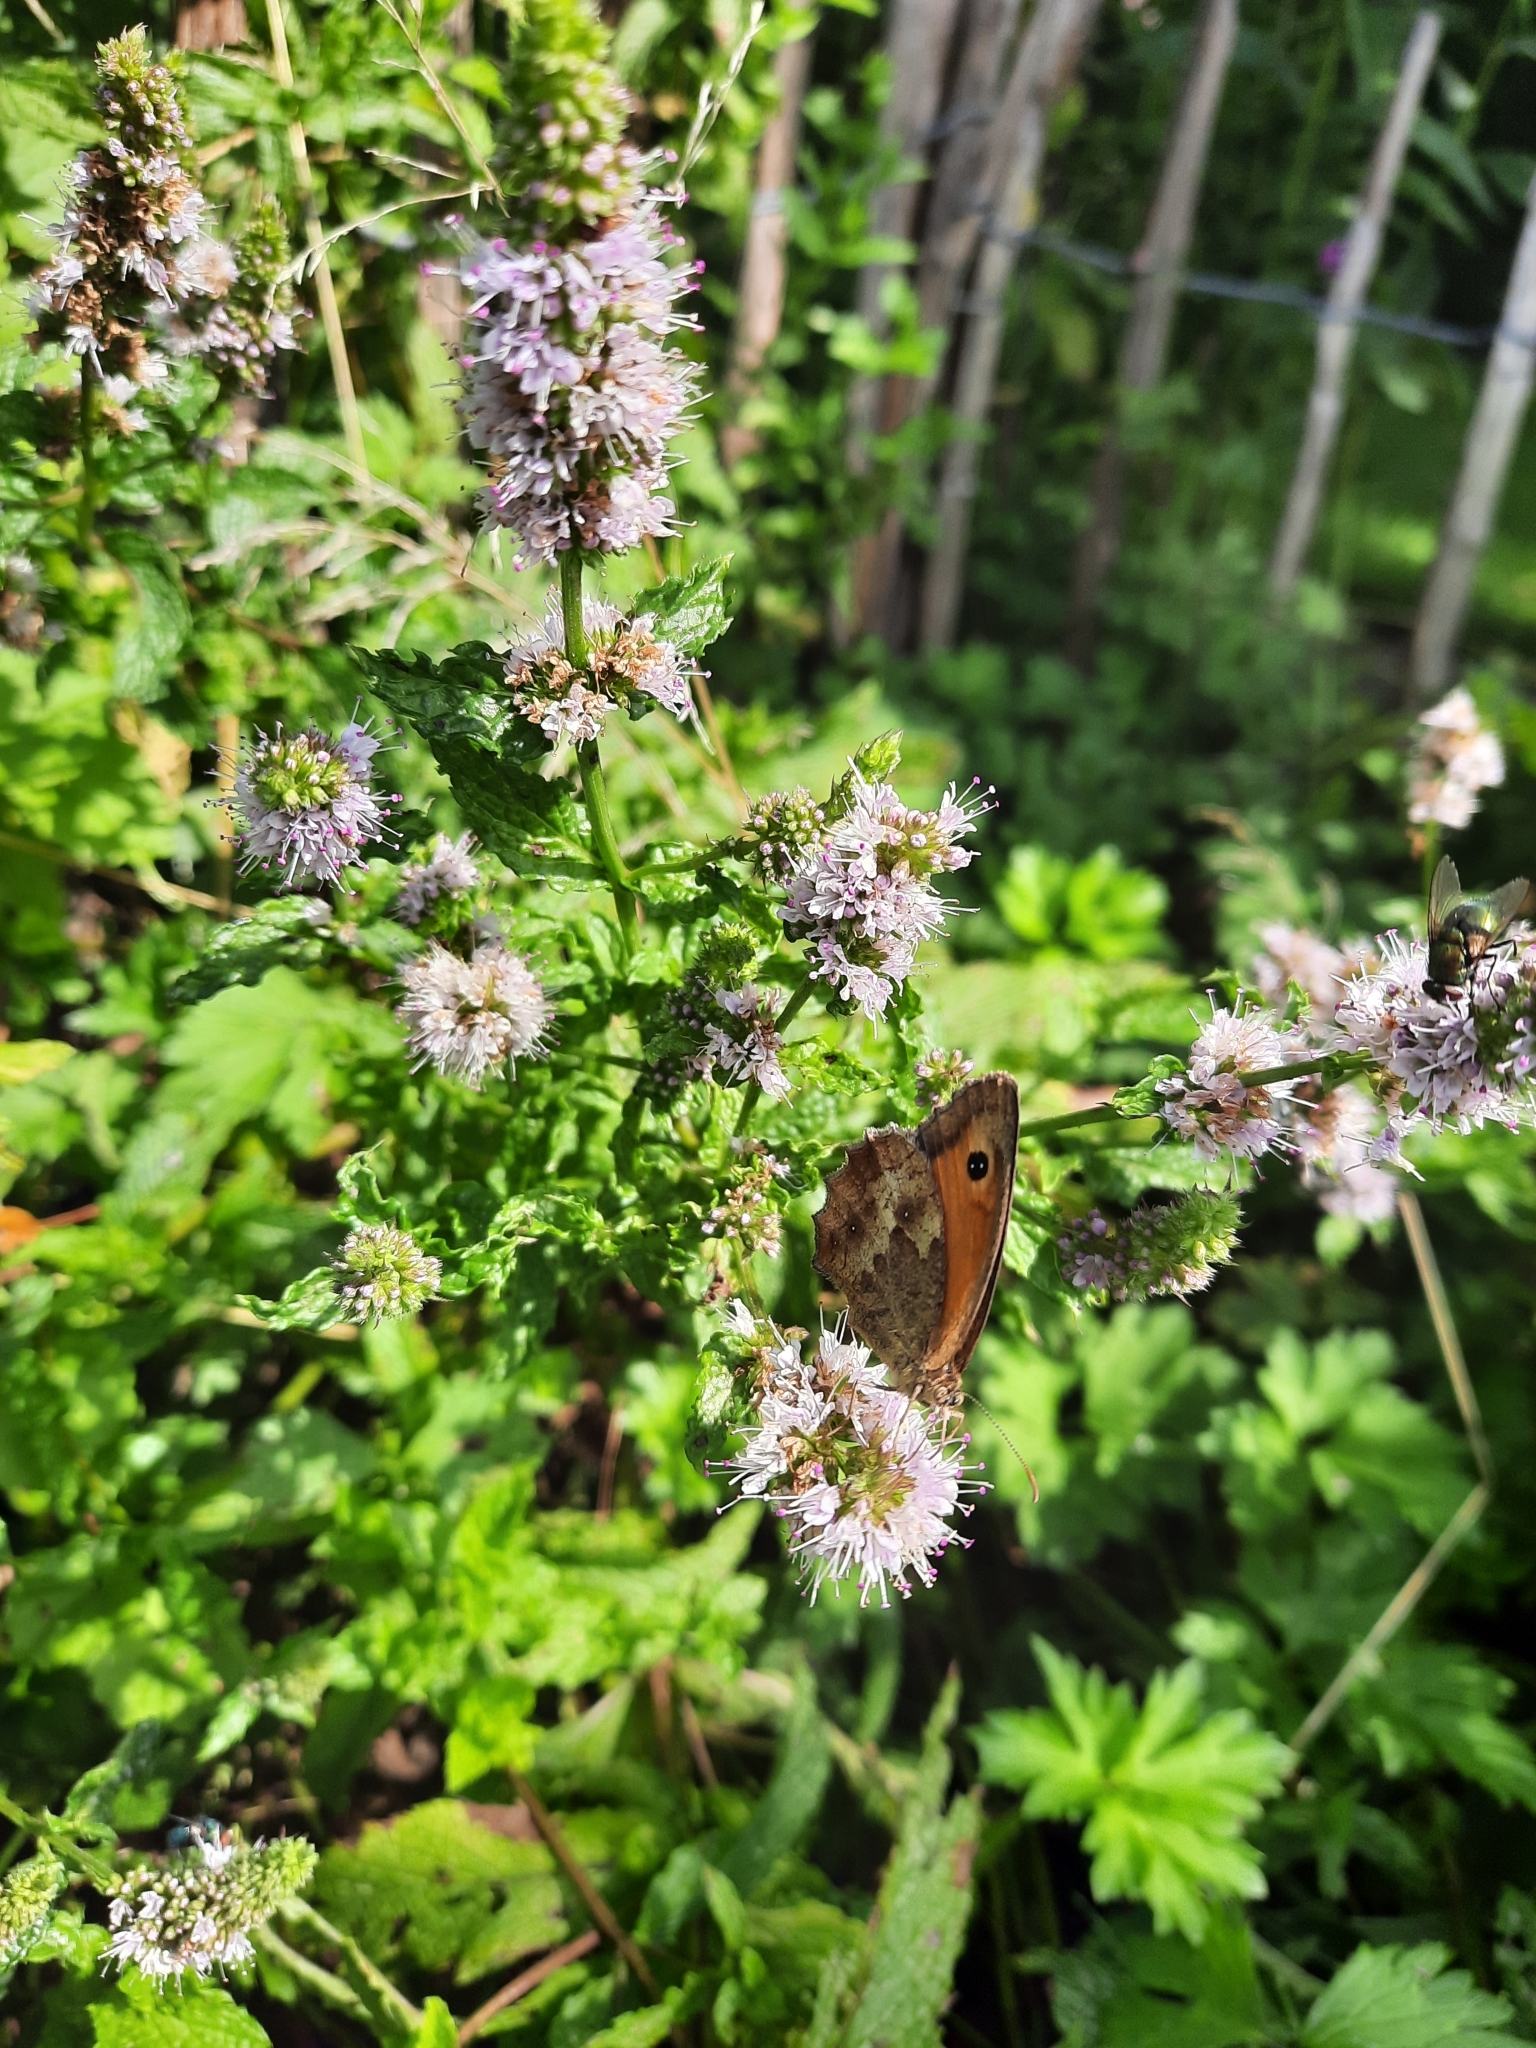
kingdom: Animalia
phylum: Arthropoda
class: Insecta
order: Lepidoptera
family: Nymphalidae
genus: Pyronia
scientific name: Pyronia tithonus
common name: Gatekeeper
